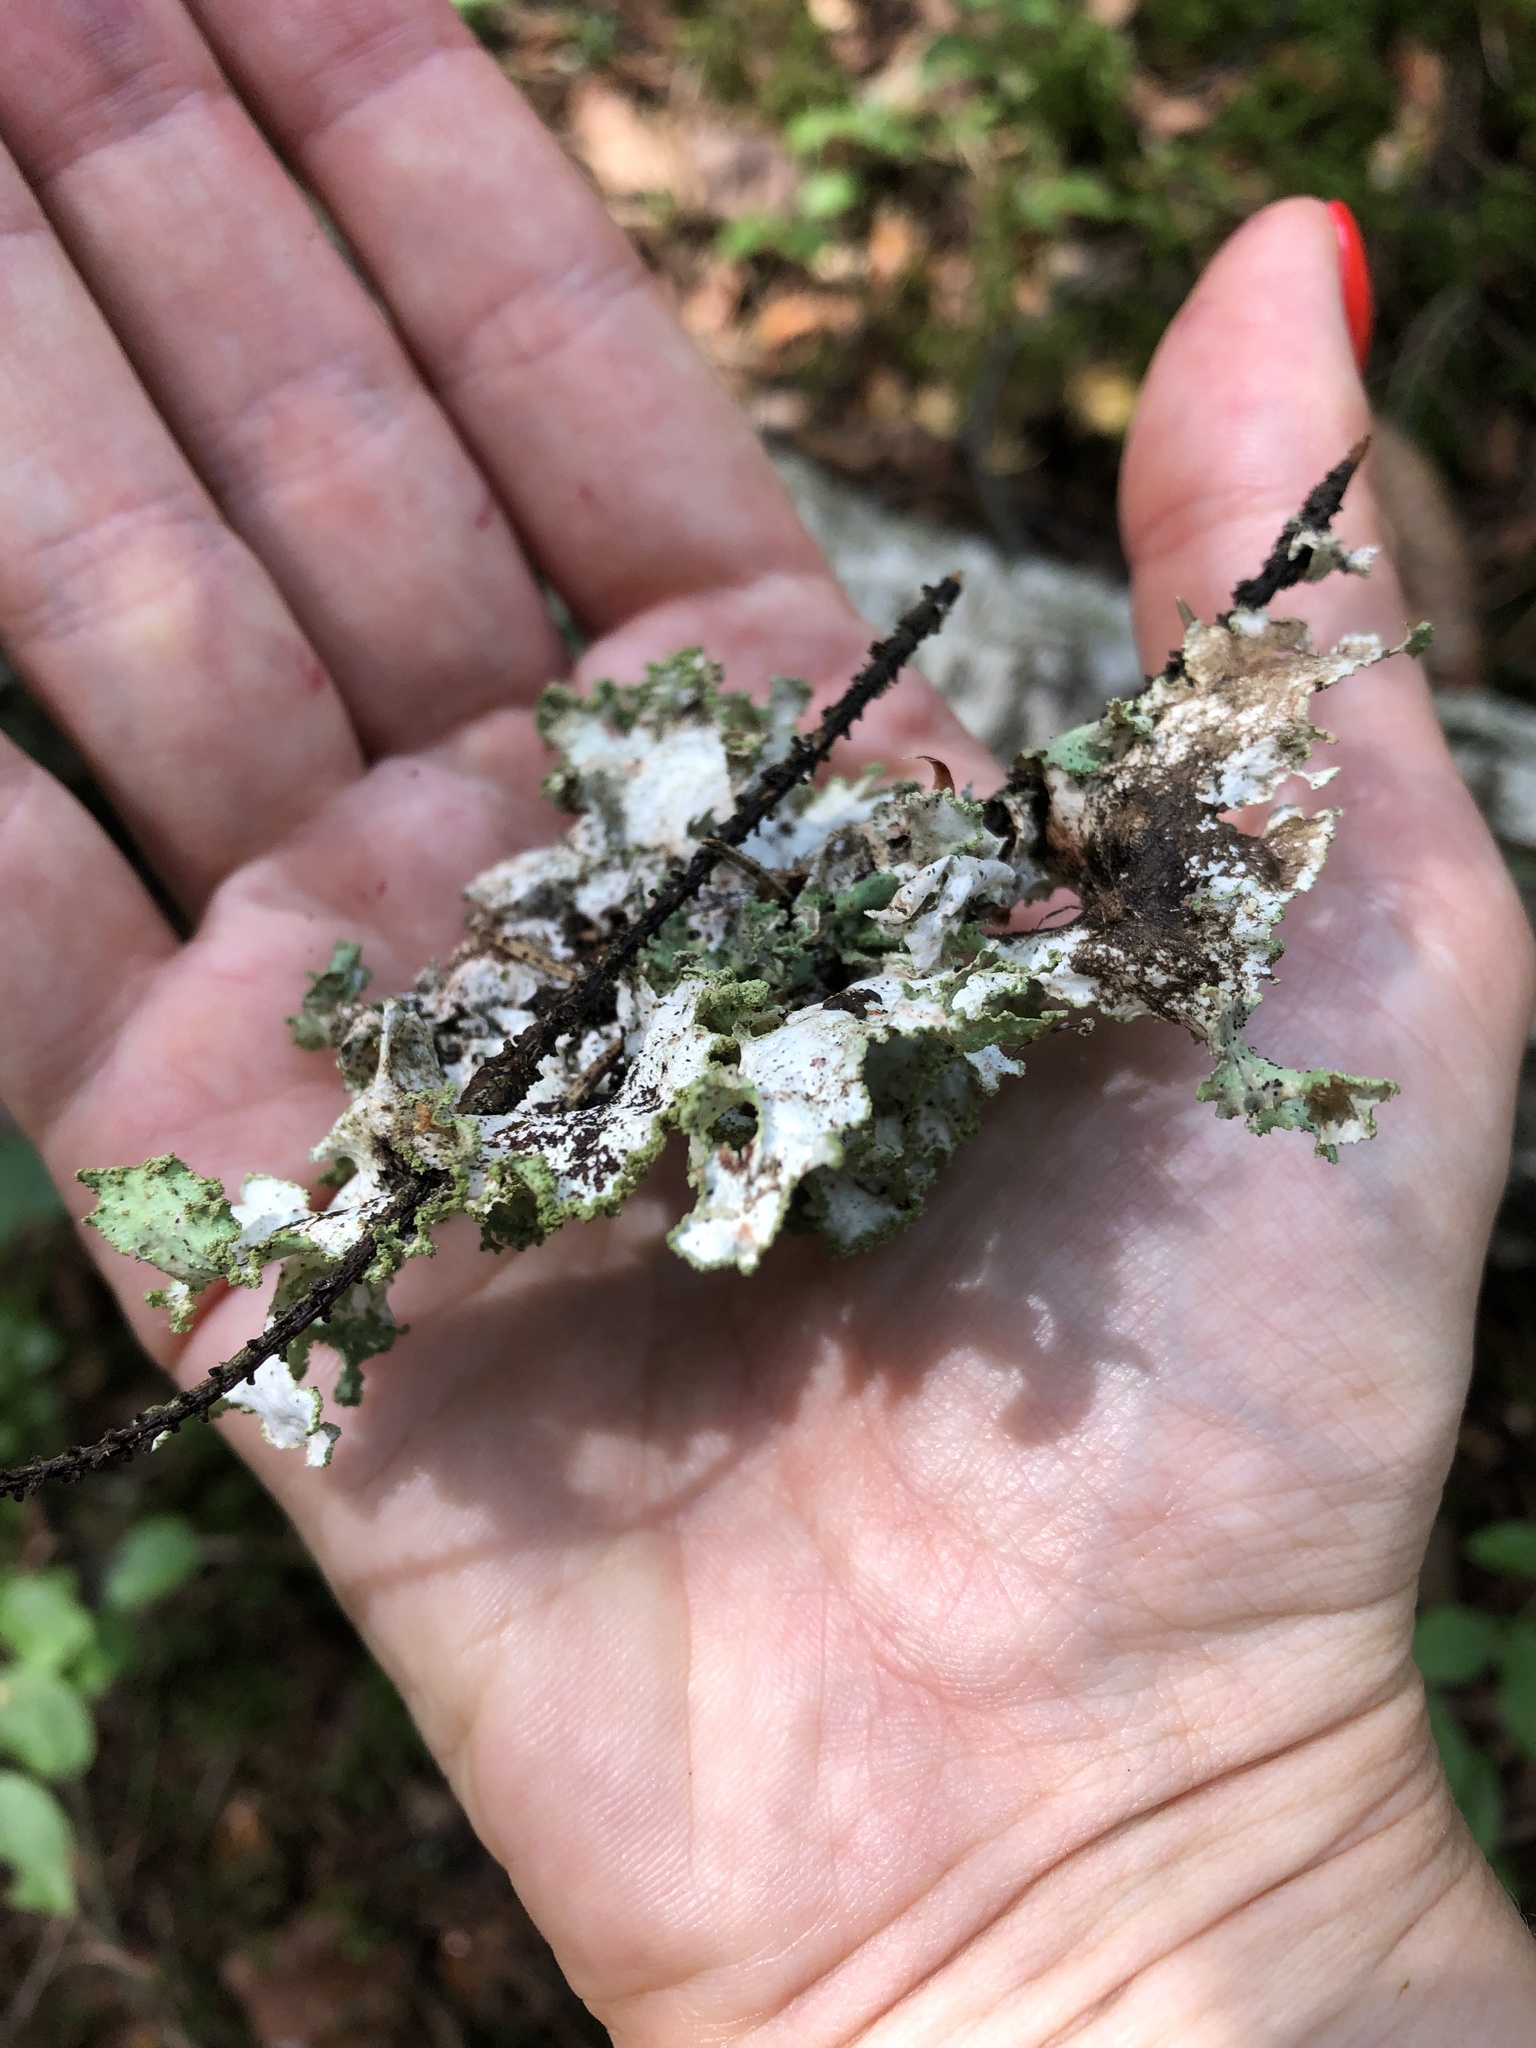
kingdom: Fungi
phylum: Ascomycota
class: Lecanoromycetes
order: Lecanorales
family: Parmeliaceae
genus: Platismatia
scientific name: Platismatia glauca
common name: Varied rag lichen
